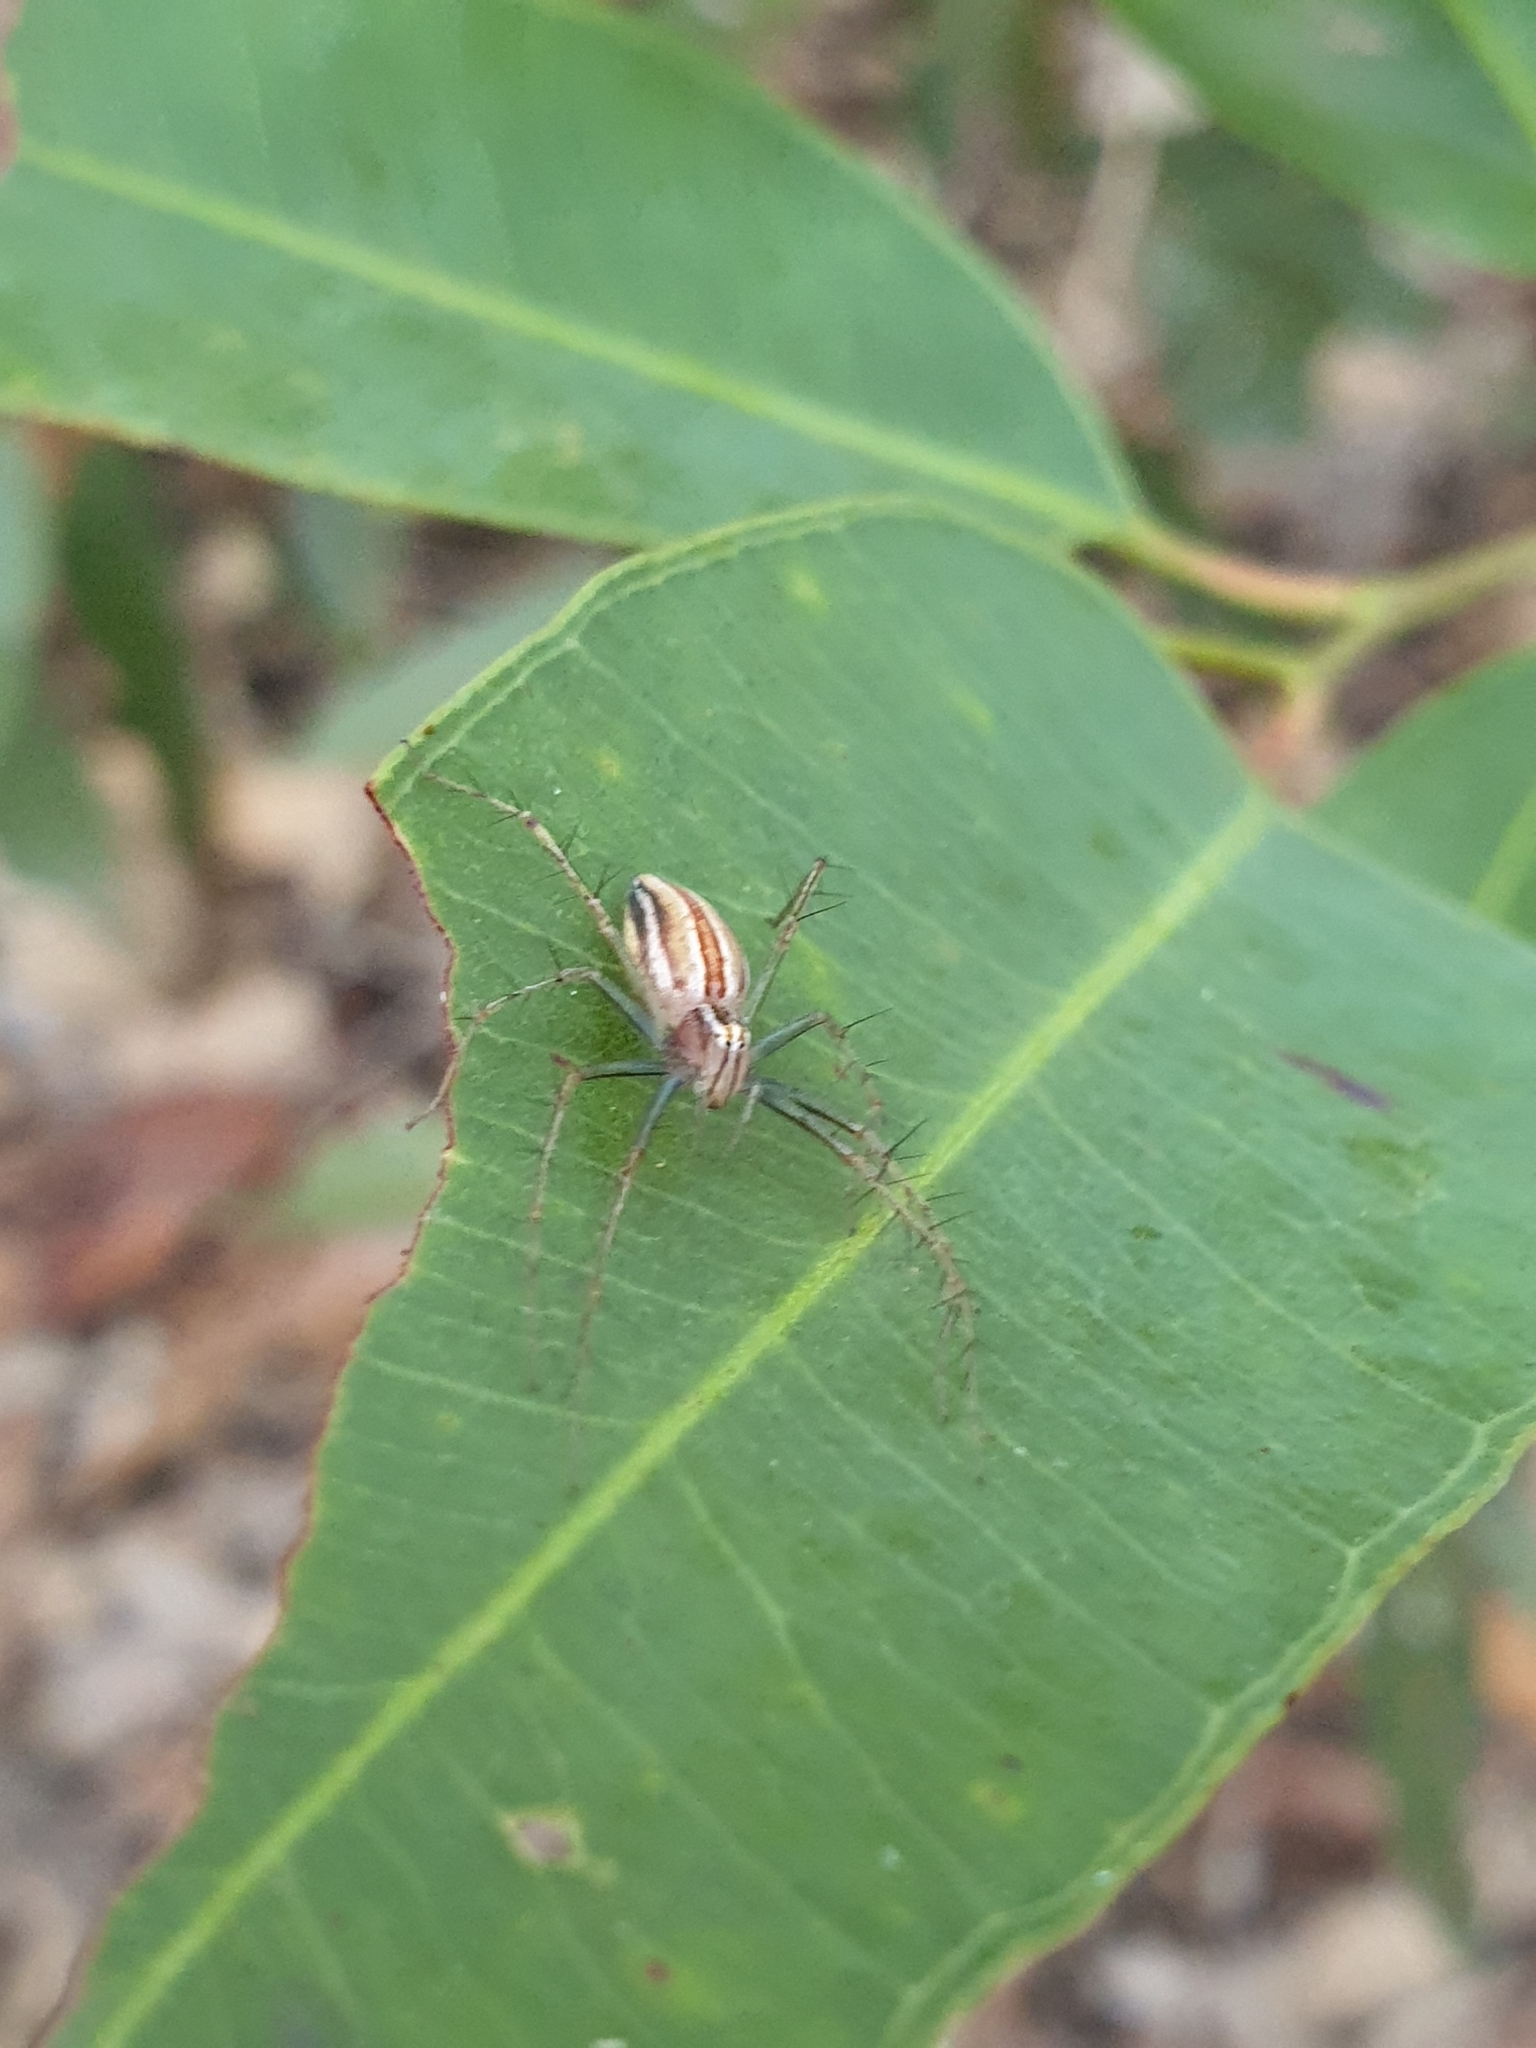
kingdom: Animalia
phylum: Arthropoda
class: Arachnida
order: Araneae
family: Oxyopidae
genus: Oxyopes
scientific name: Oxyopes macilentus
